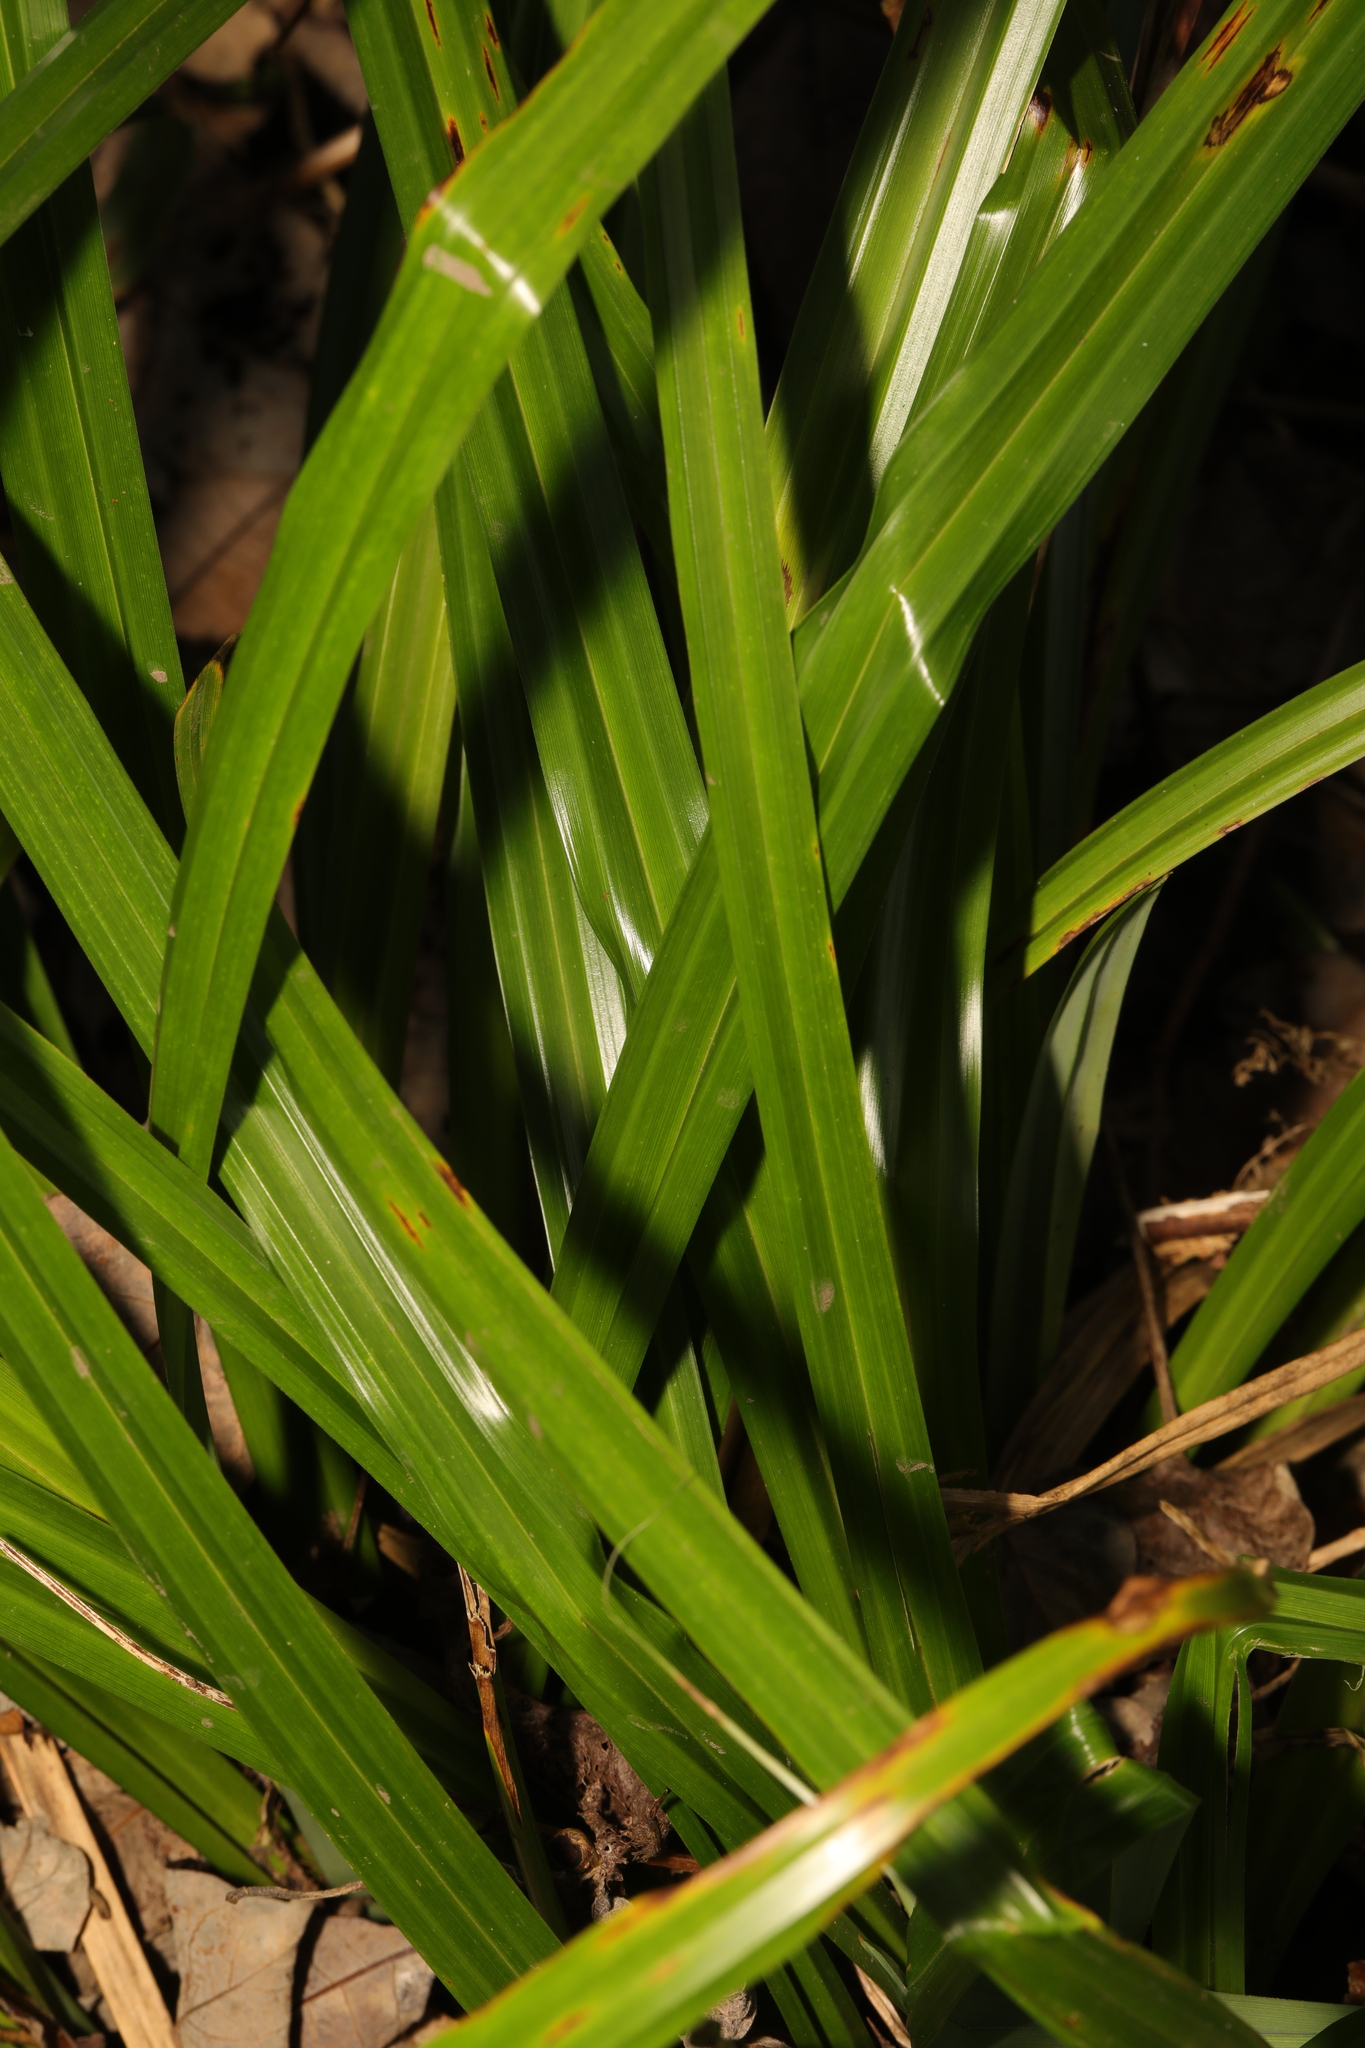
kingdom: Plantae
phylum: Tracheophyta
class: Liliopsida
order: Poales
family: Cyperaceae
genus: Carex
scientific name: Carex pendula
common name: Pendulous sedge
